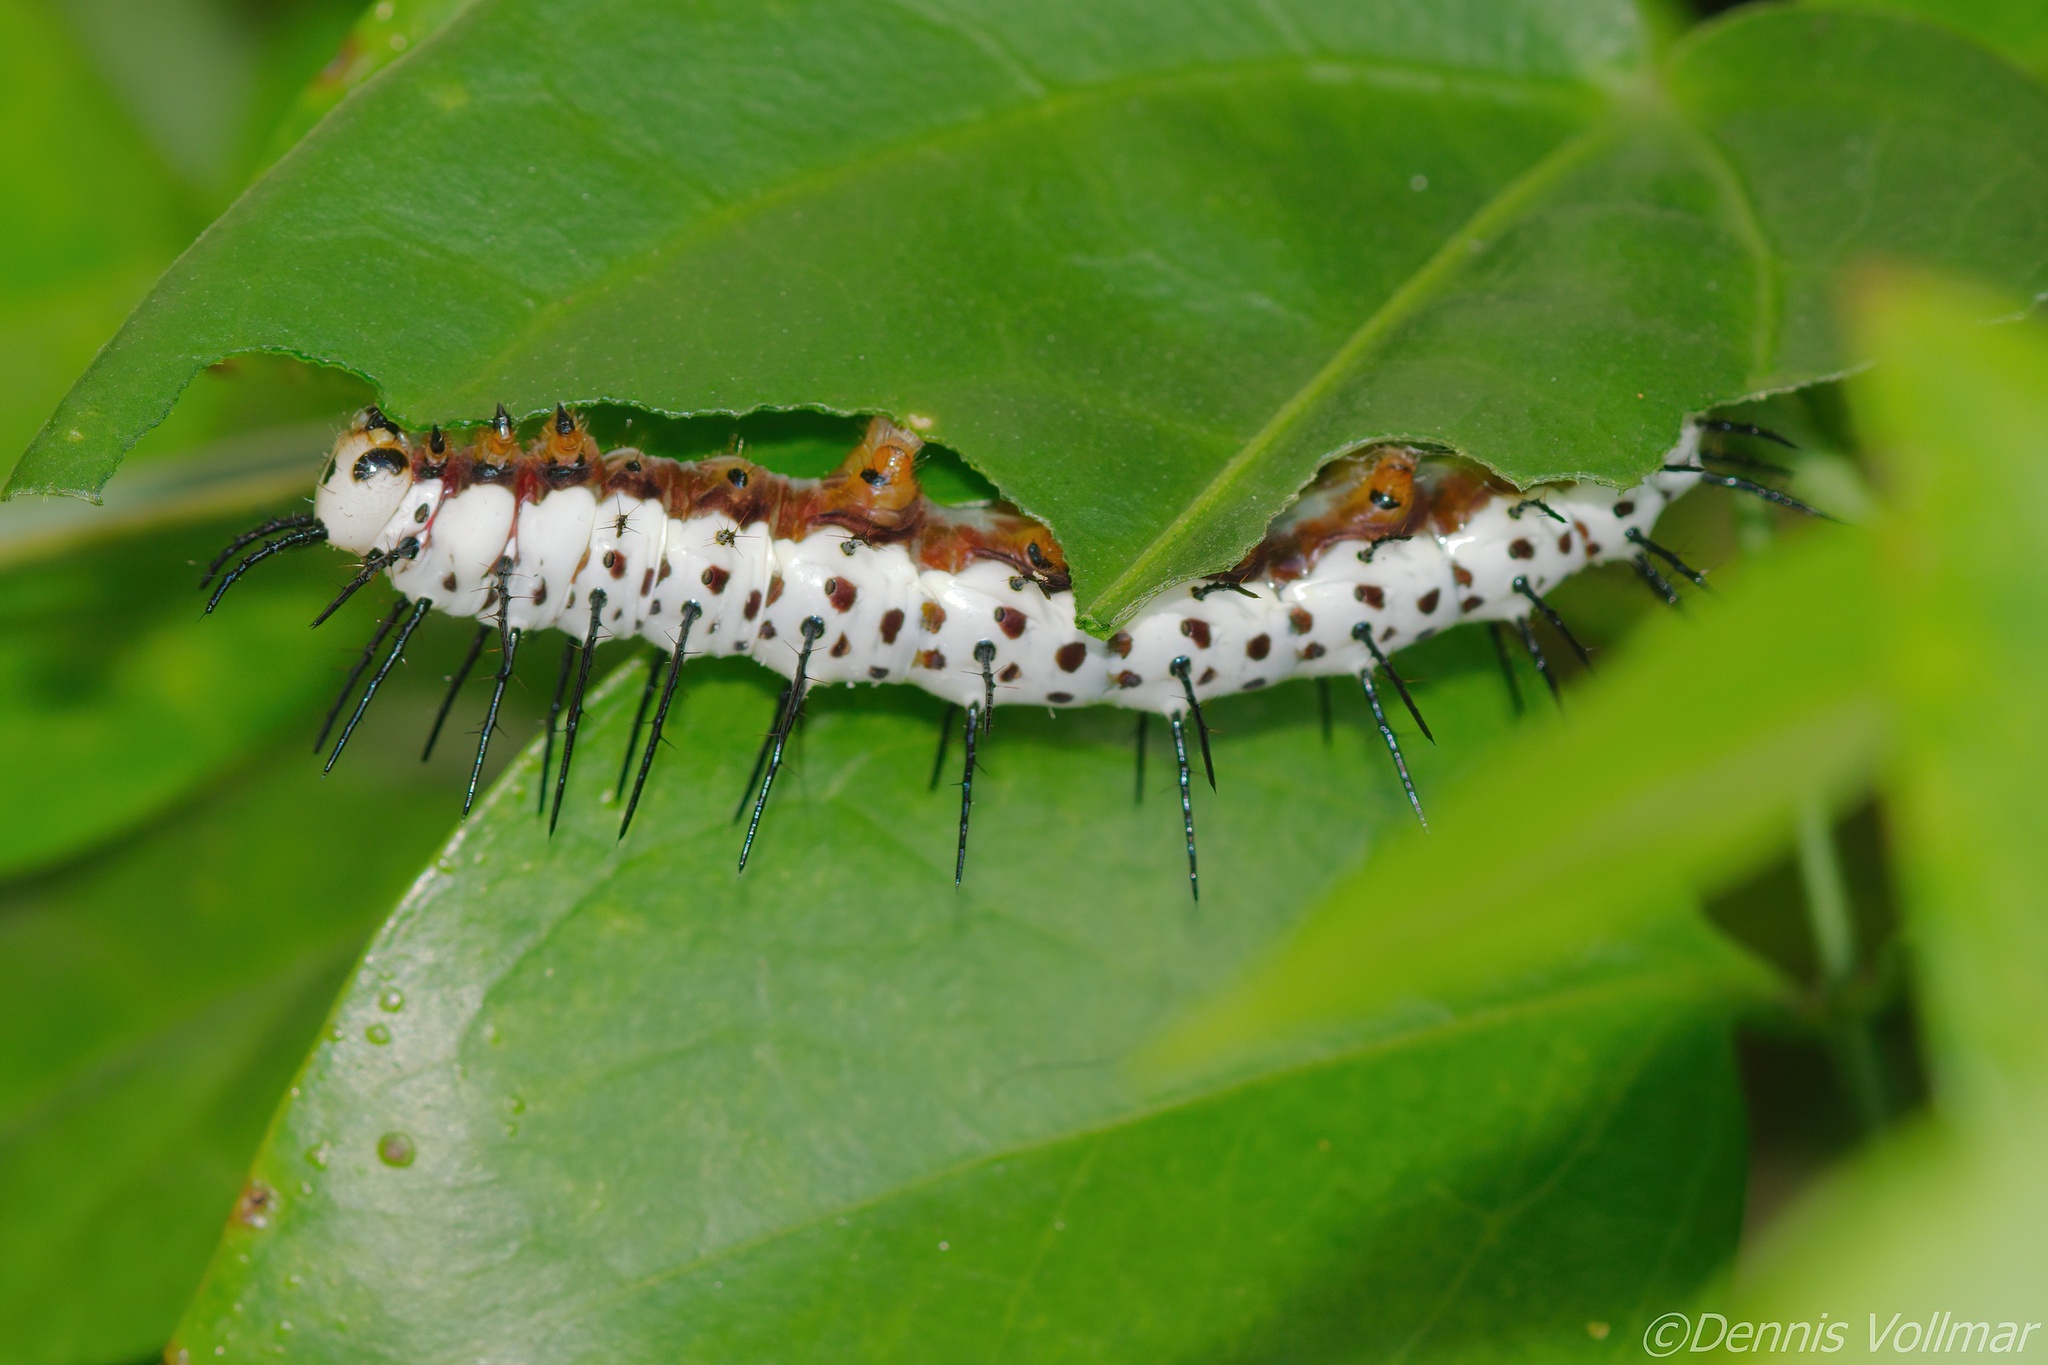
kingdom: Animalia
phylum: Arthropoda
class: Insecta
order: Lepidoptera
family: Nymphalidae
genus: Heliconius
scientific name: Heliconius charithonia
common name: Zebra long wing
